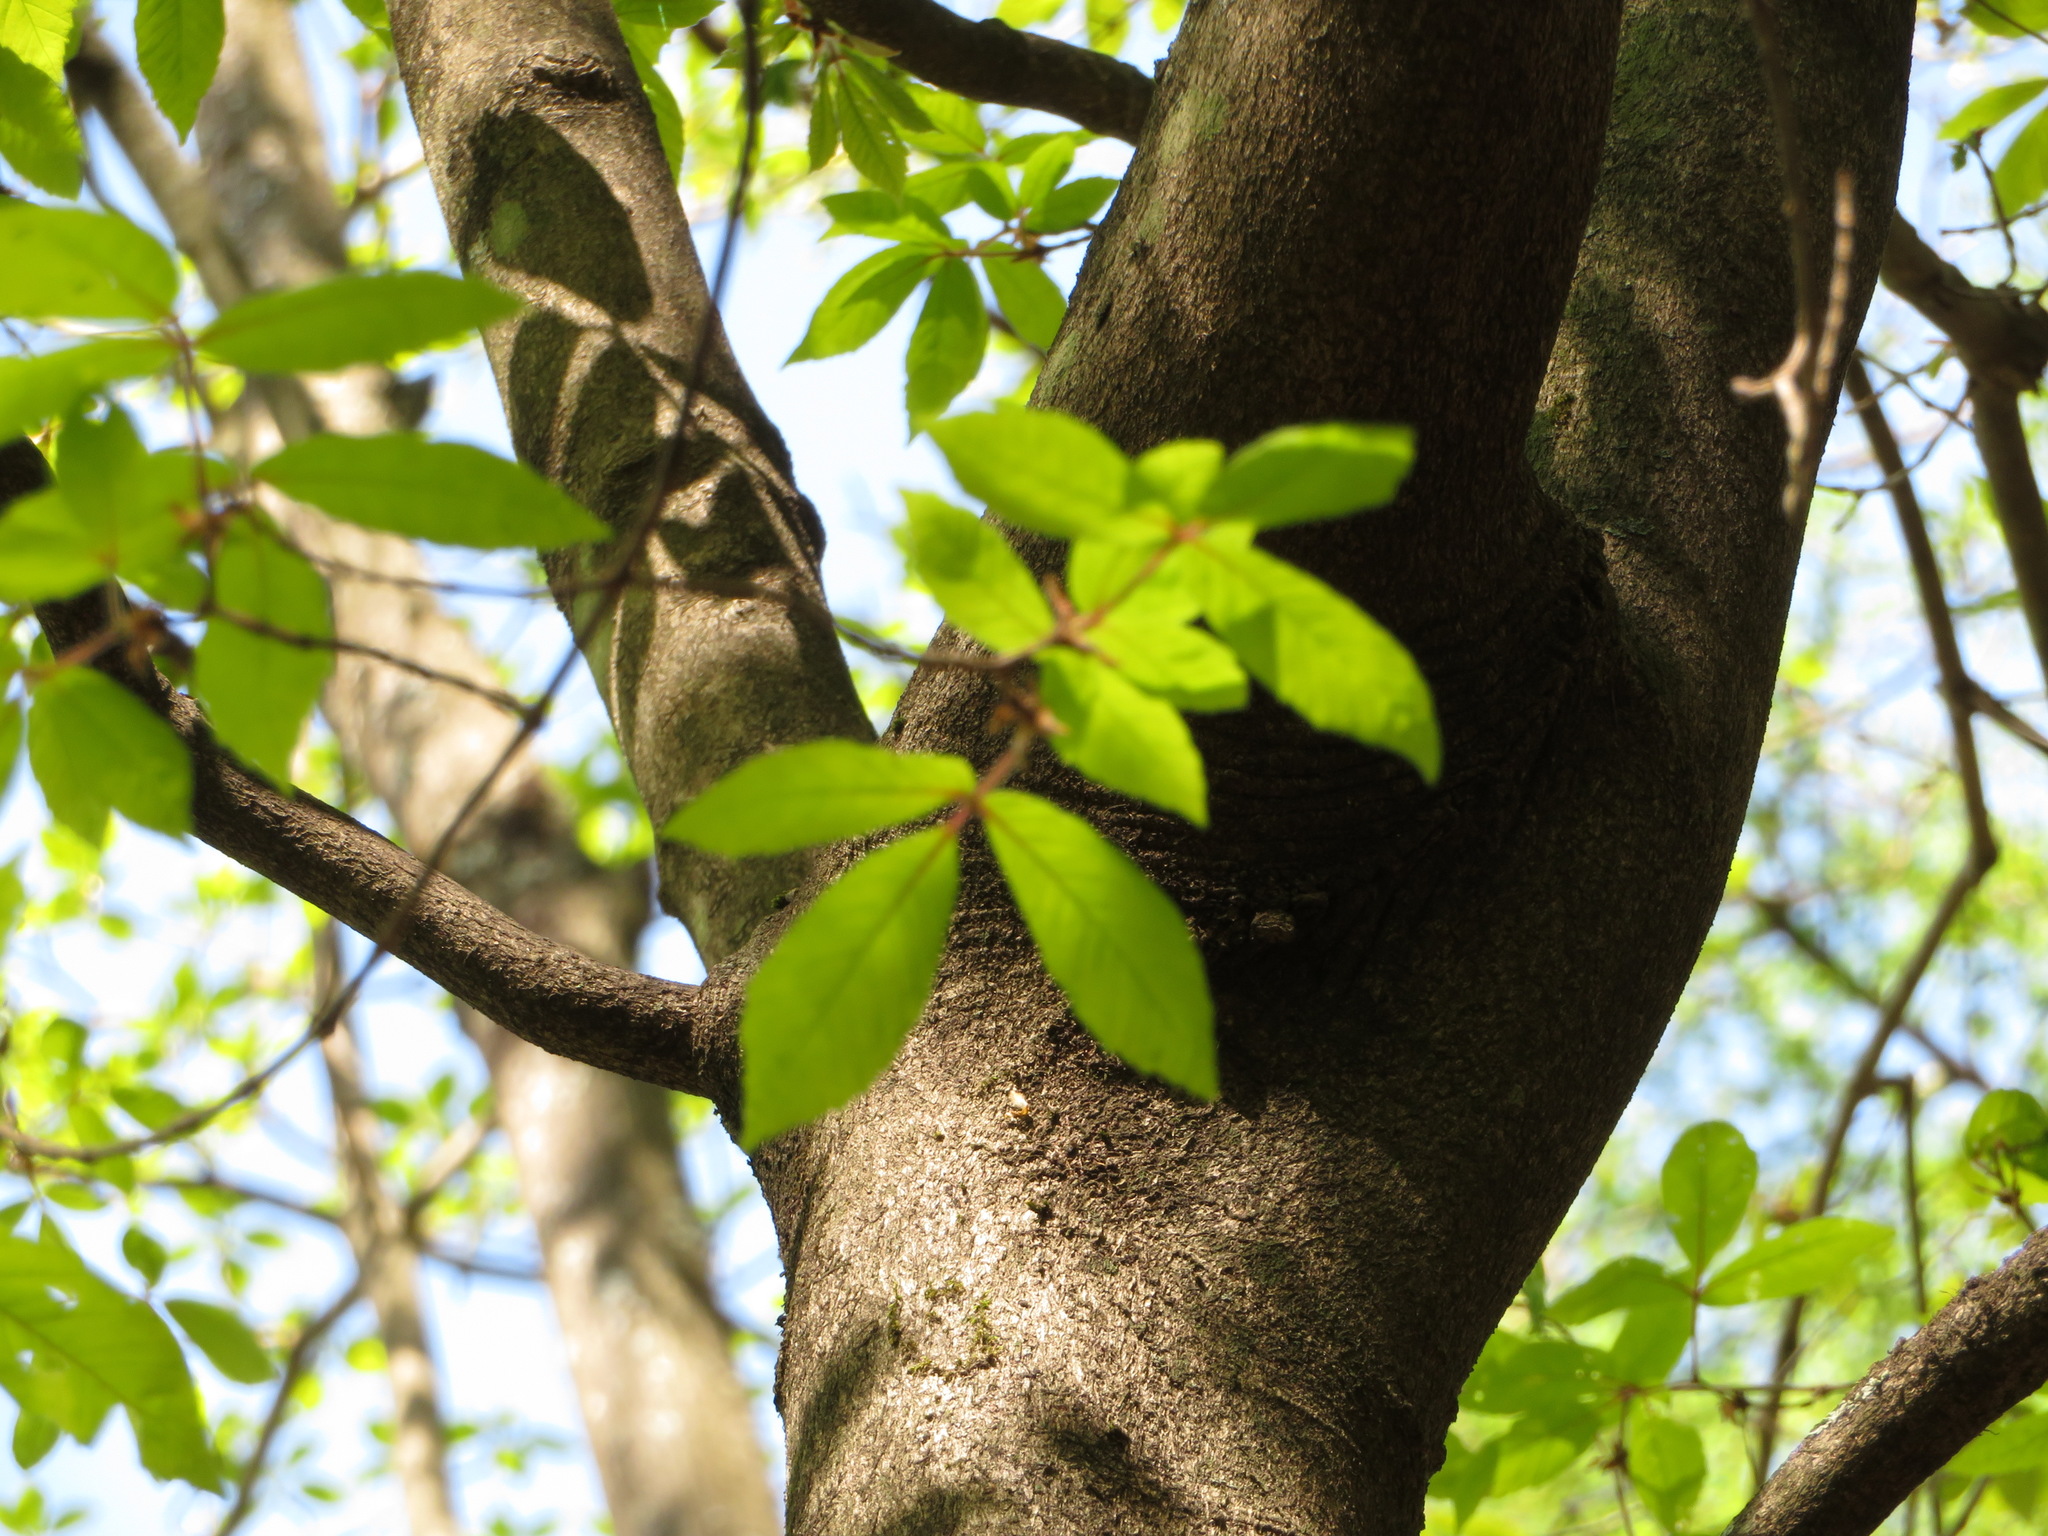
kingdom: Plantae
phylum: Tracheophyta
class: Magnoliopsida
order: Sapindales
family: Sapindaceae
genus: Acer
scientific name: Acer maximowiczianum
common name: Nikko maple
